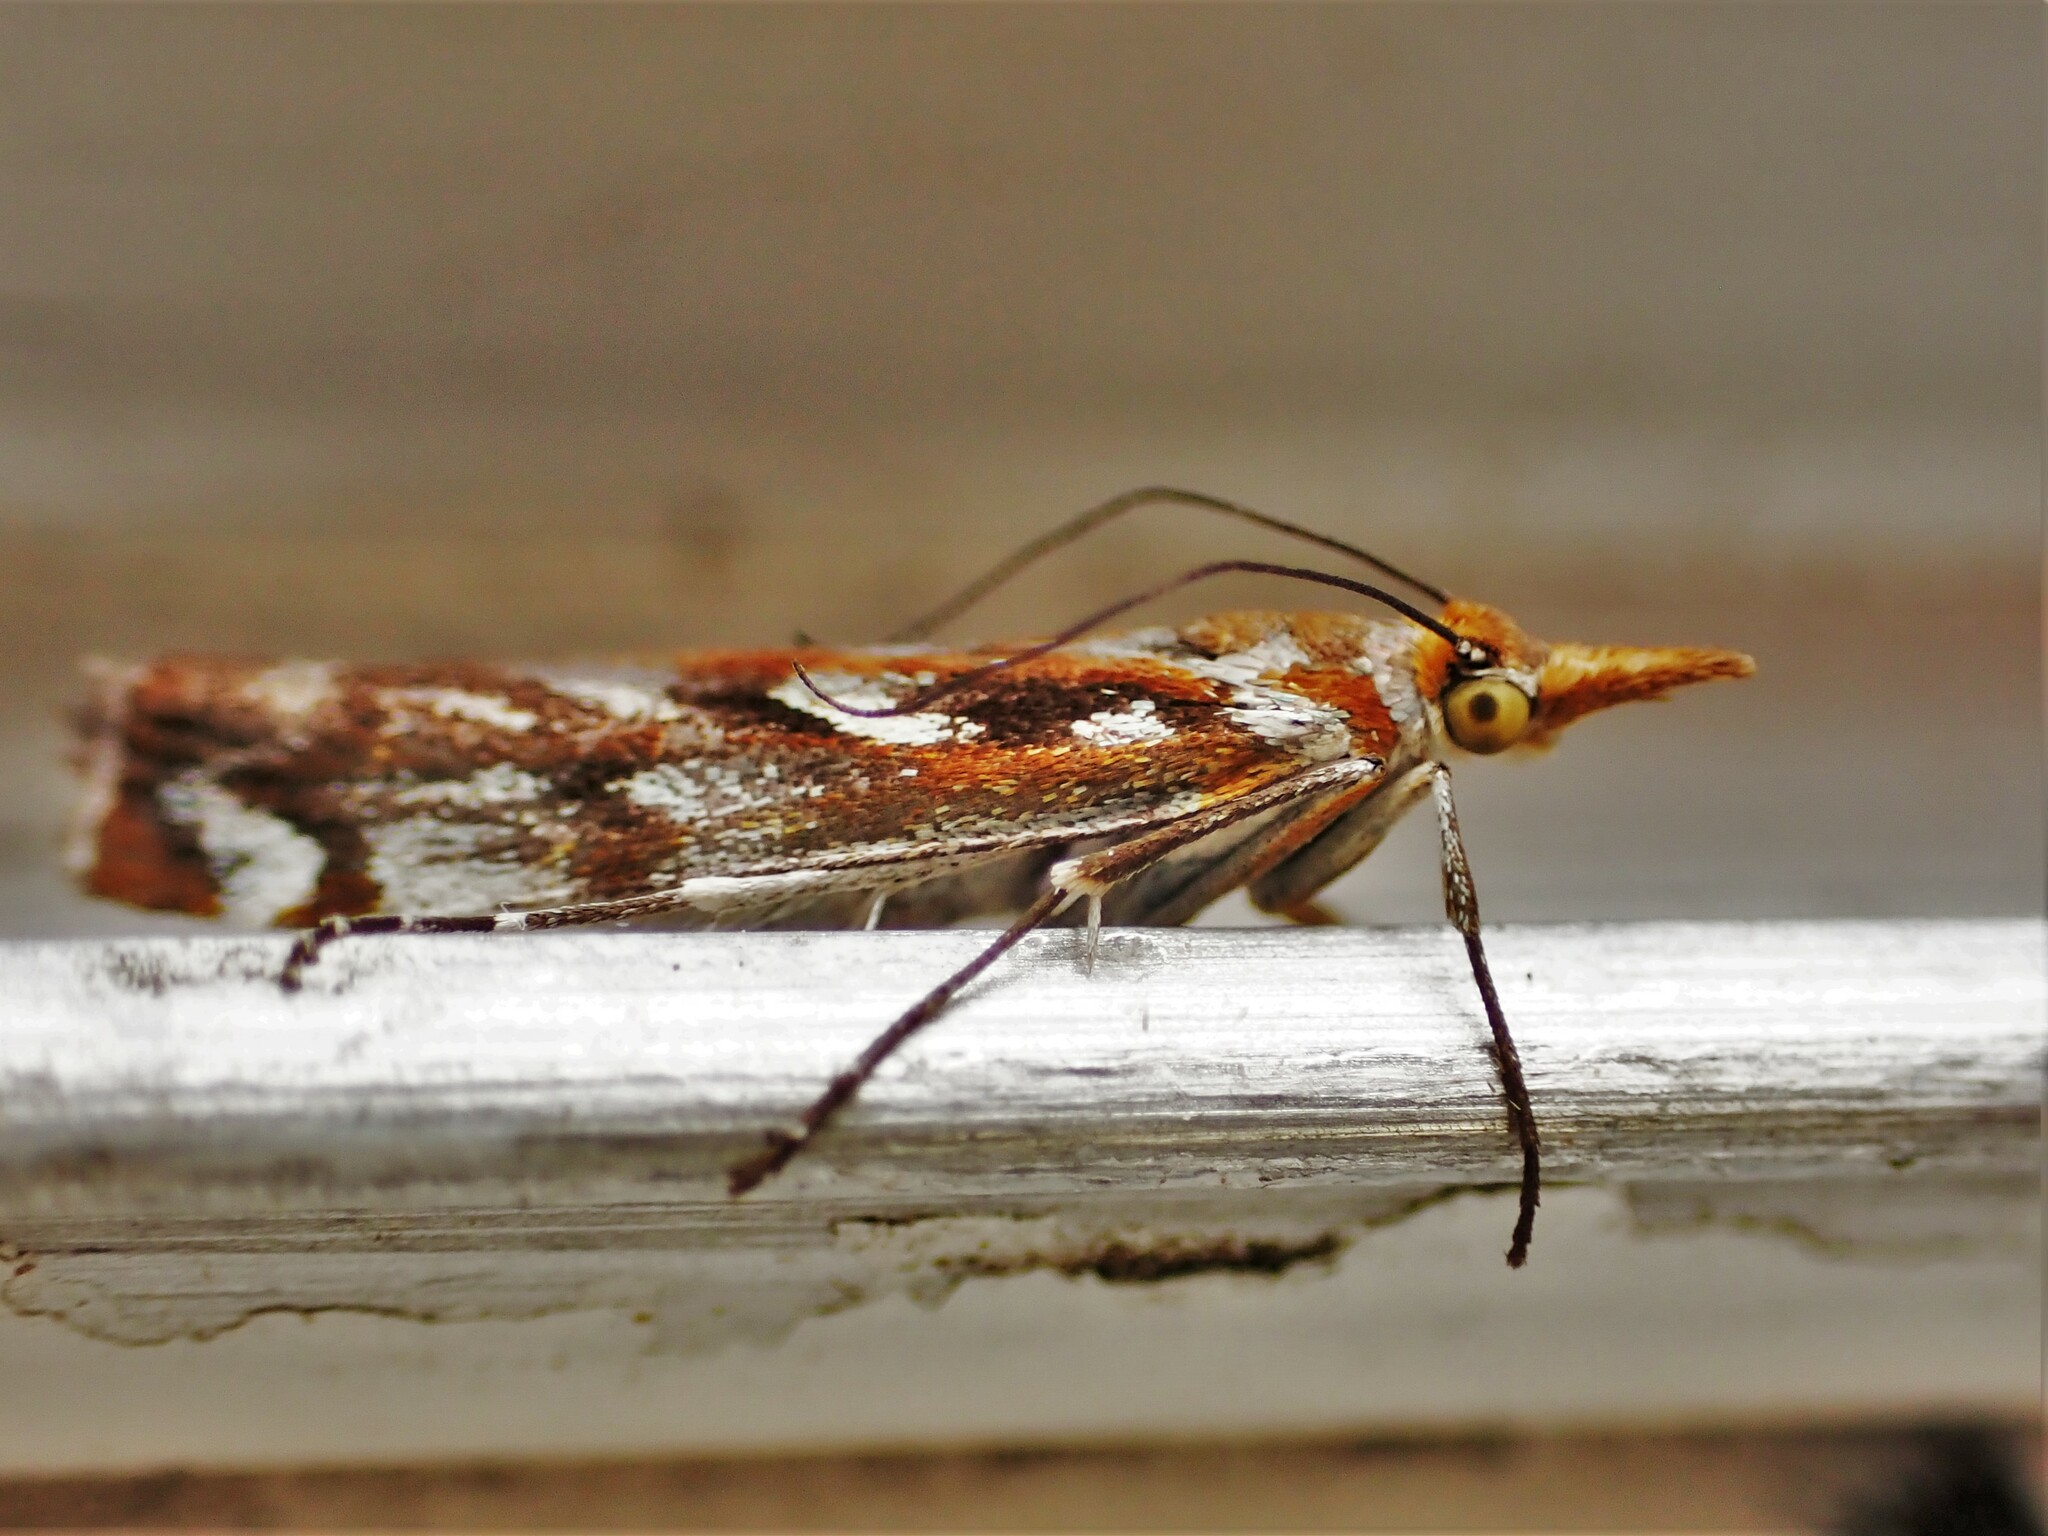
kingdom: Animalia
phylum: Arthropoda
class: Insecta
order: Lepidoptera
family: Crambidae
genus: Orocrambus
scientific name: Orocrambus xanthogrammus
